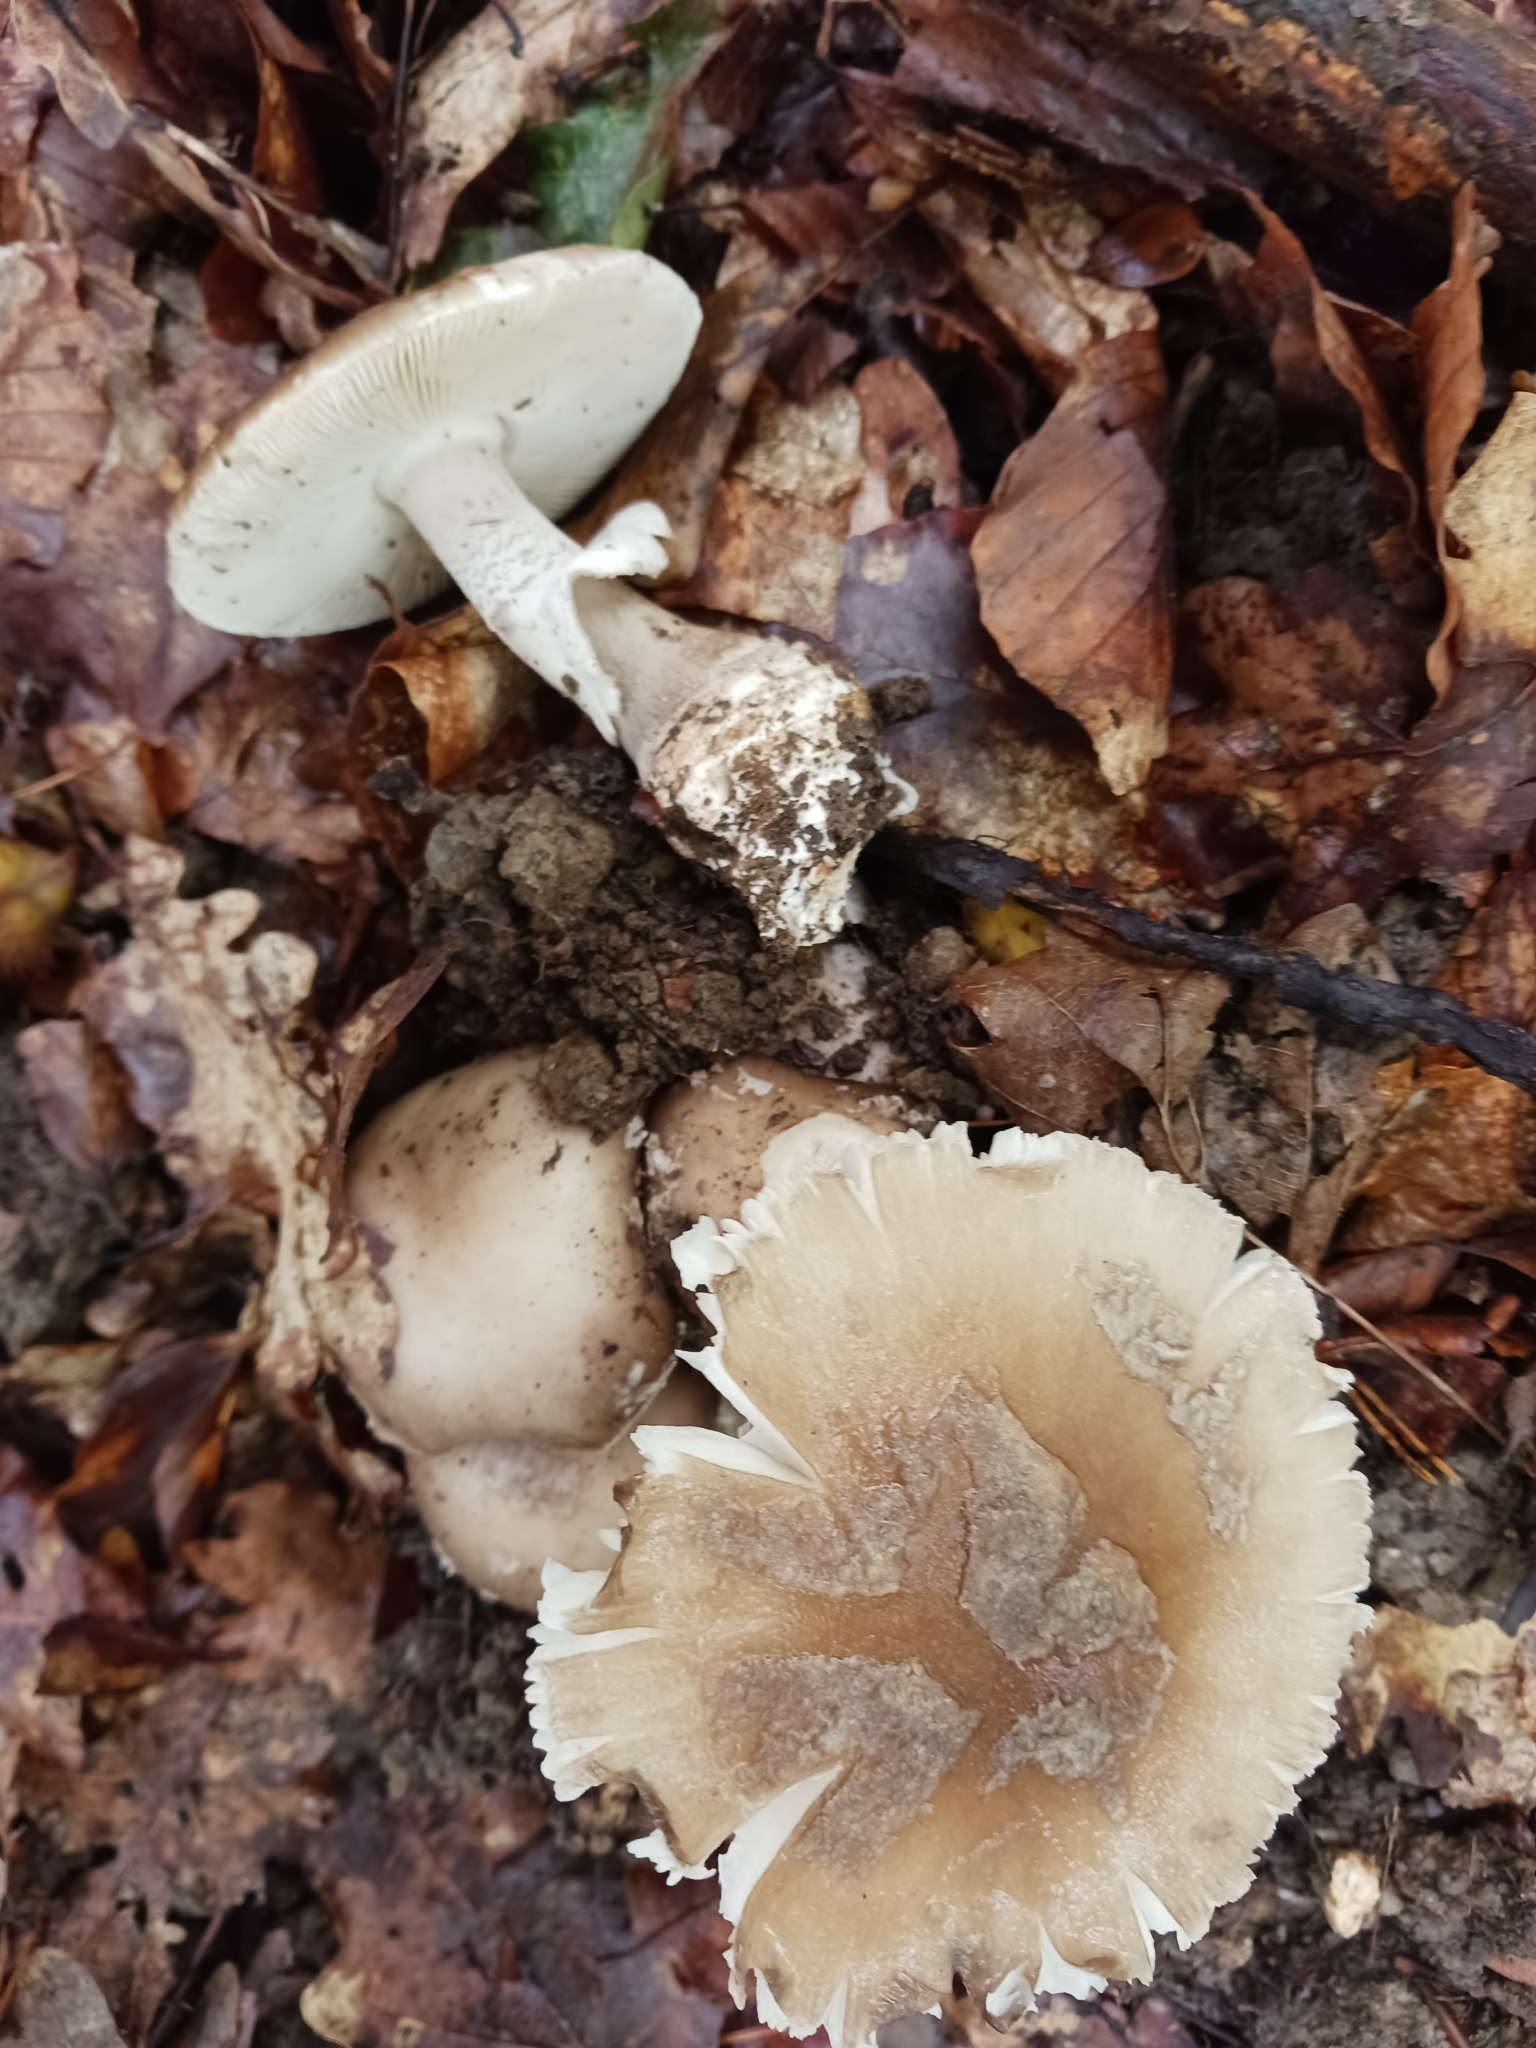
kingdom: Fungi
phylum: Basidiomycota
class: Agaricomycetes
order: Agaricales
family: Amanitaceae
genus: Amanita
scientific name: Amanita excelsa
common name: European false blusher
